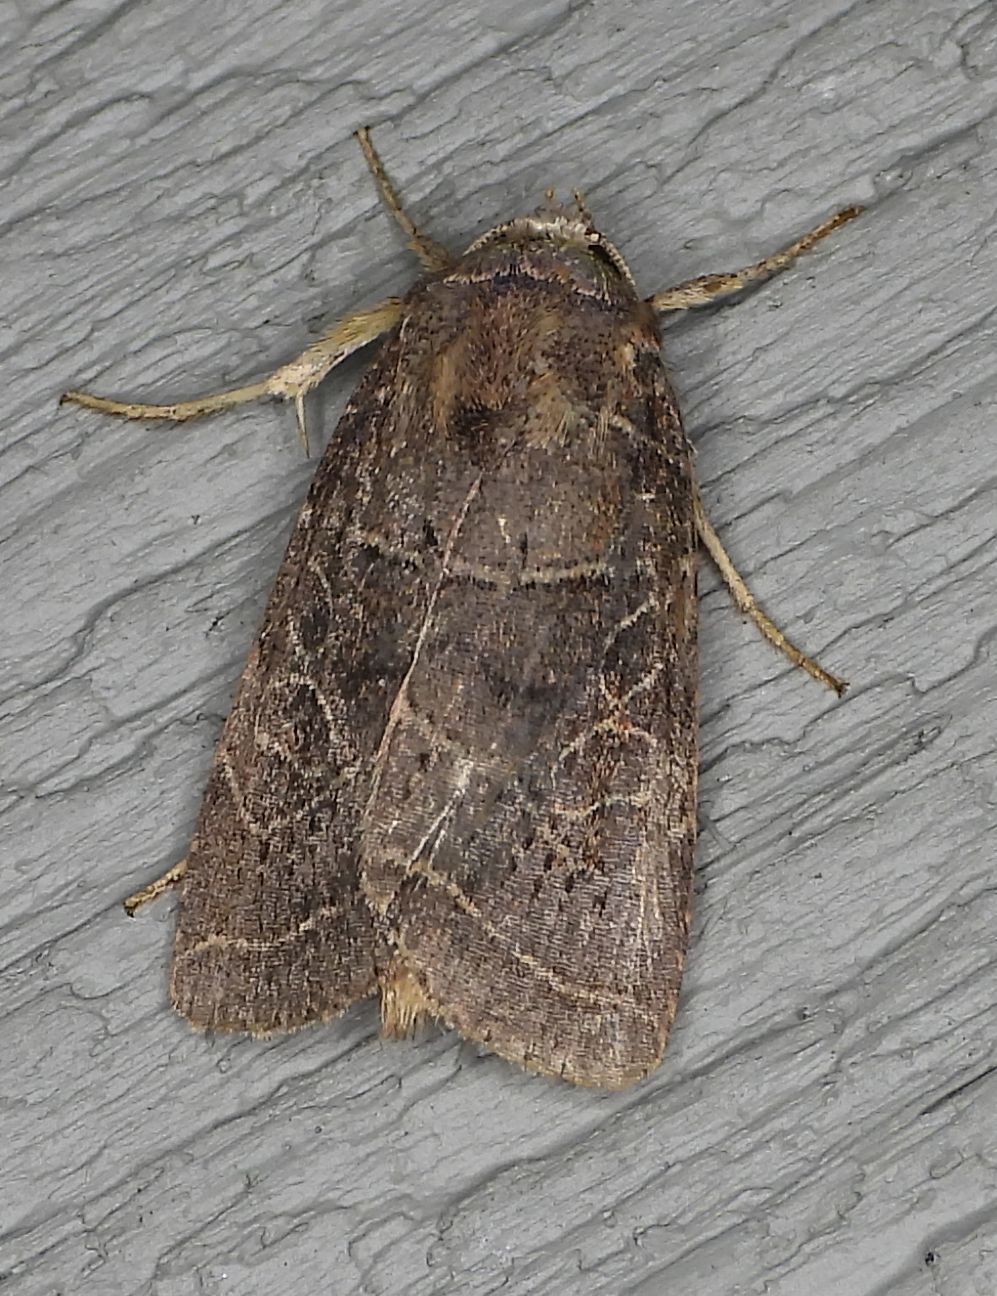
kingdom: Animalia
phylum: Arthropoda
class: Insecta
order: Lepidoptera
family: Noctuidae
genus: Orthodes
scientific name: Orthodes majuscula
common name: Rustic quaker
